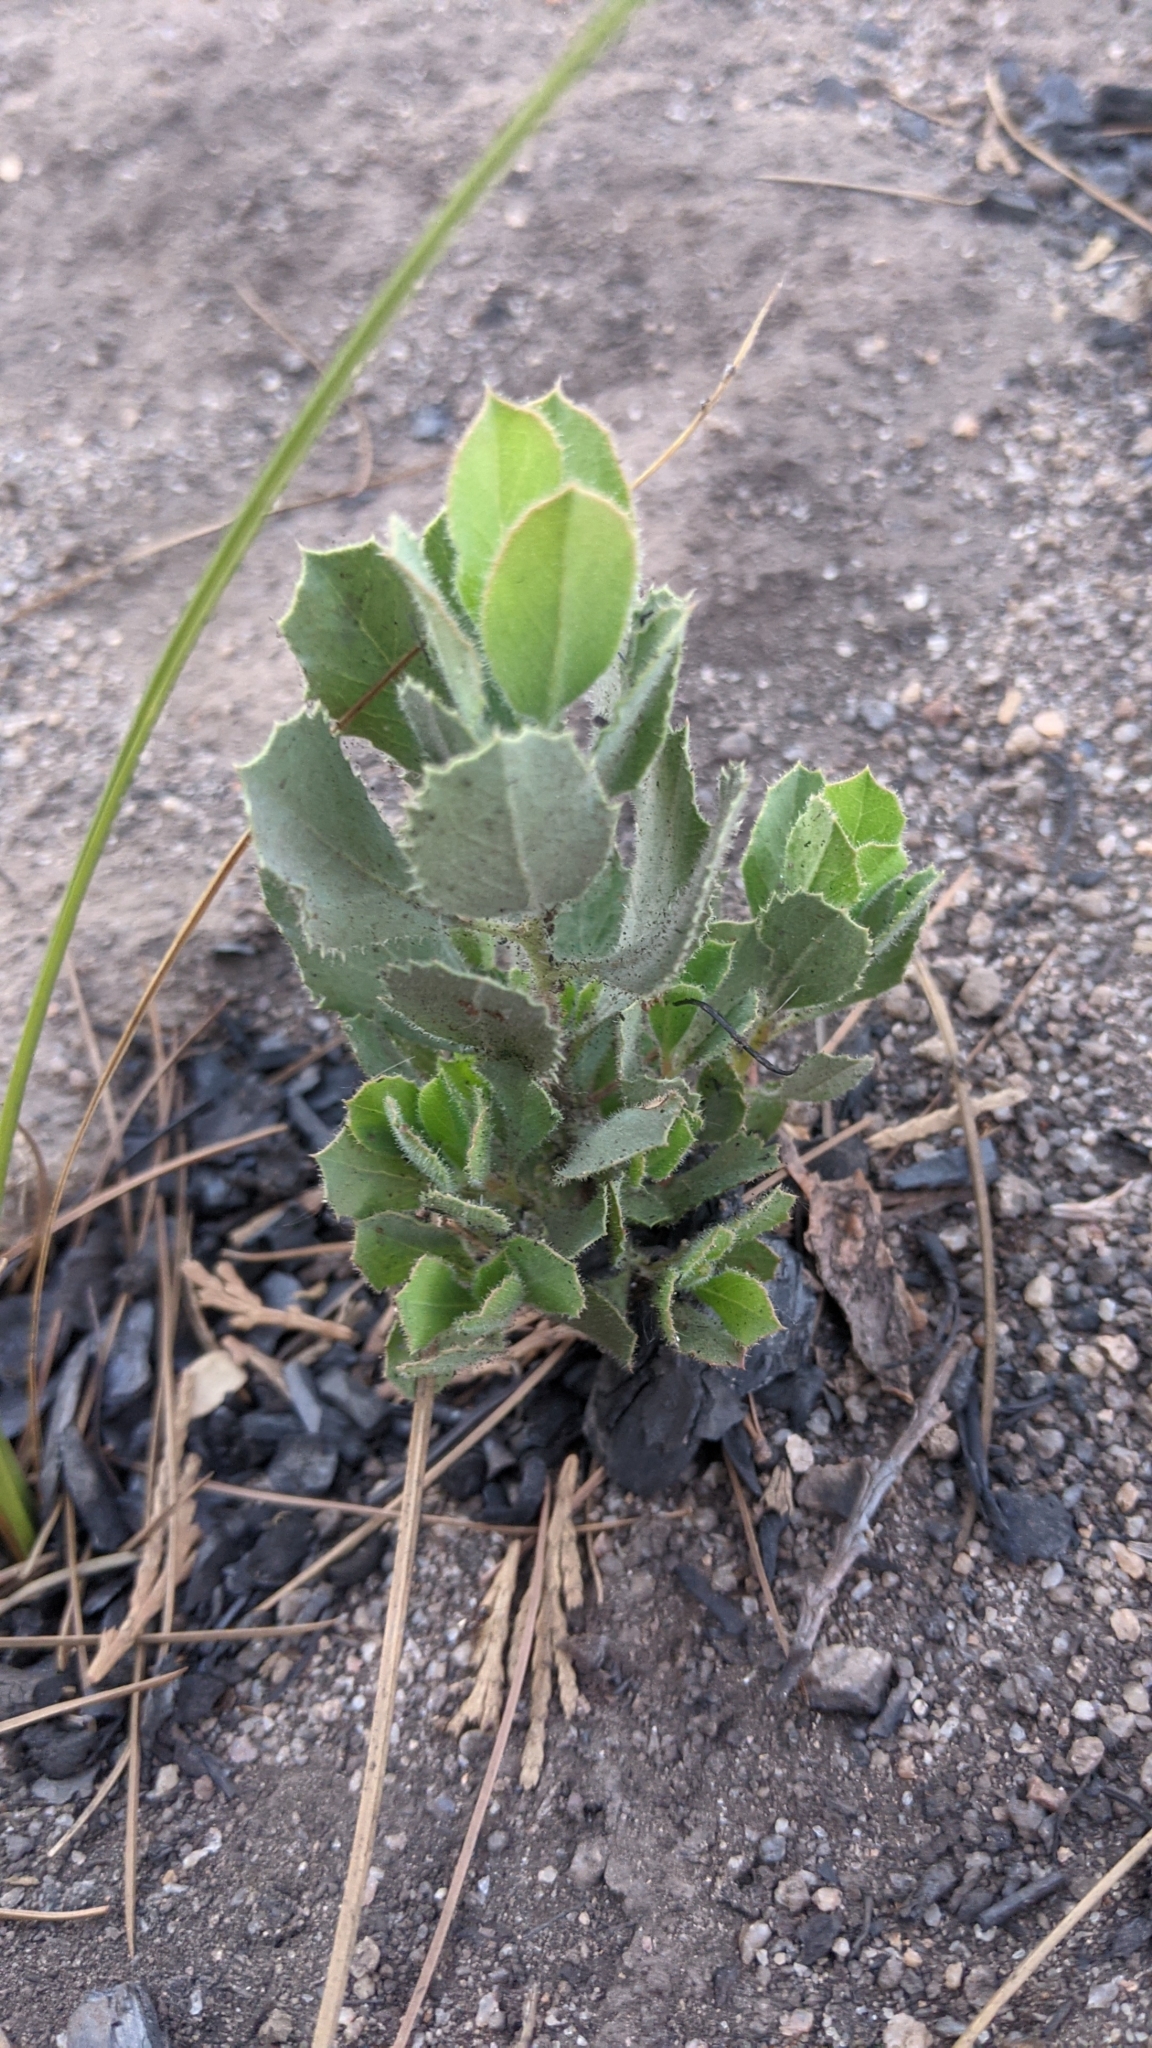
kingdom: Plantae
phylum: Tracheophyta
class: Magnoliopsida
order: Ericales
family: Ericaceae
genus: Arctostaphylos
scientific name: Arctostaphylos viscida
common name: White-leaf manzanita
